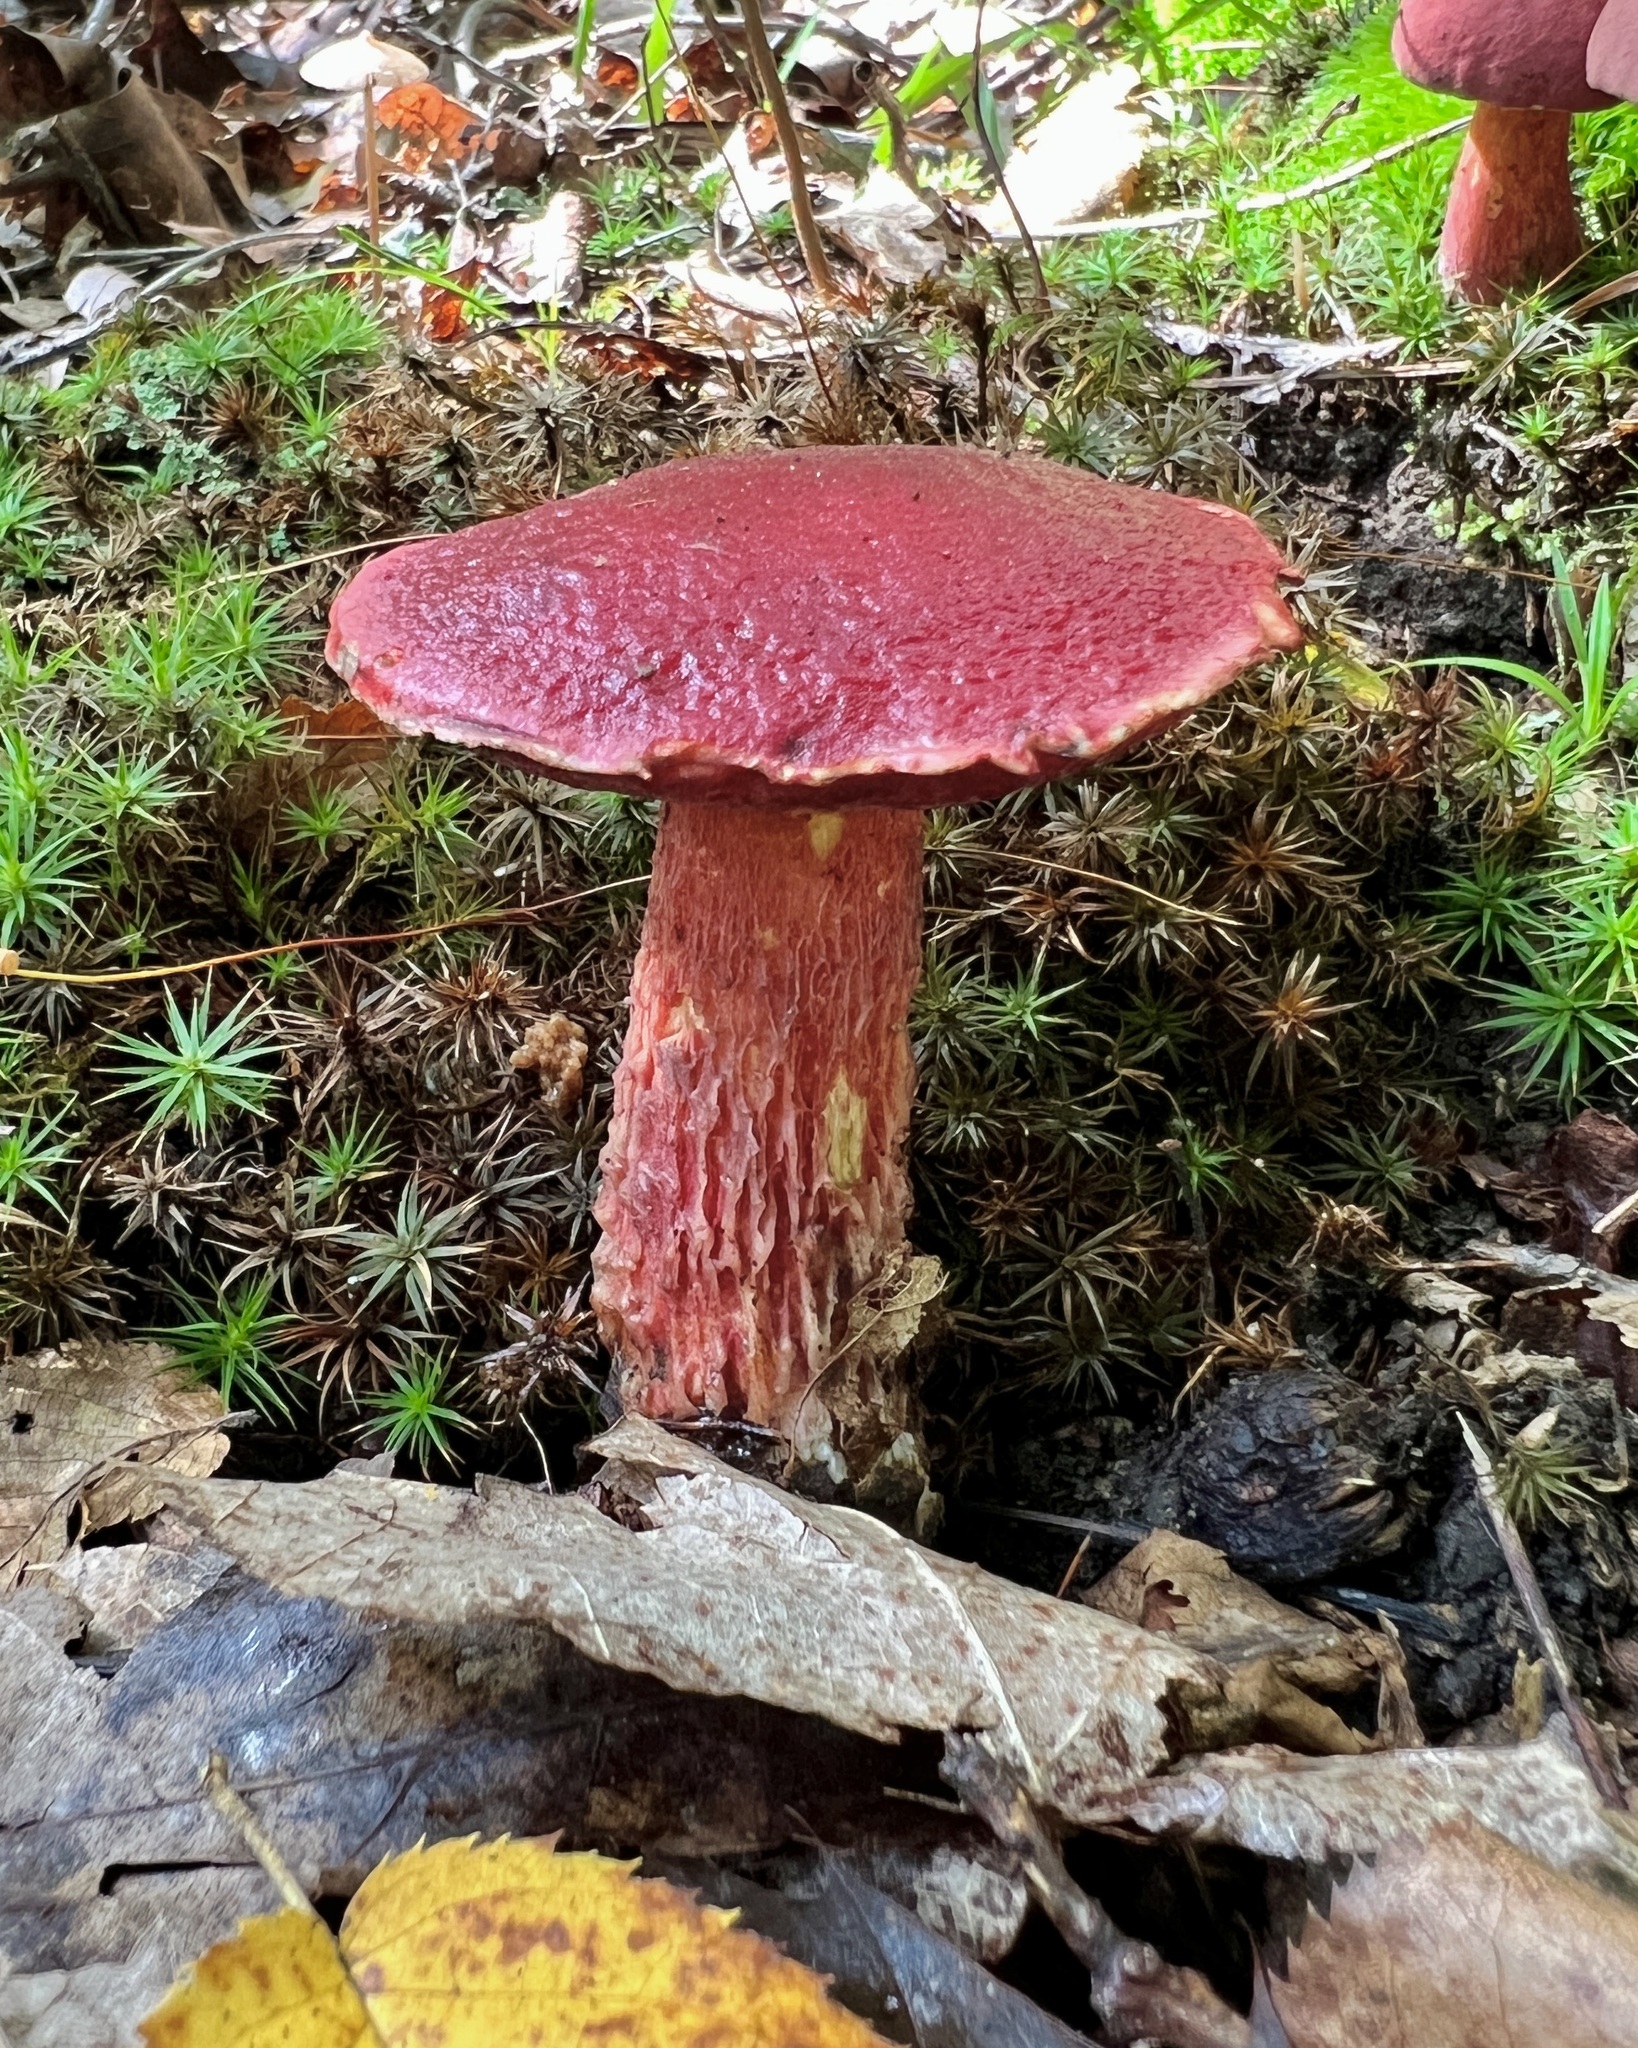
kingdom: Fungi
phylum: Basidiomycota
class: Agaricomycetes
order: Boletales
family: Boletaceae
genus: Butyriboletus
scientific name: Butyriboletus frostii
